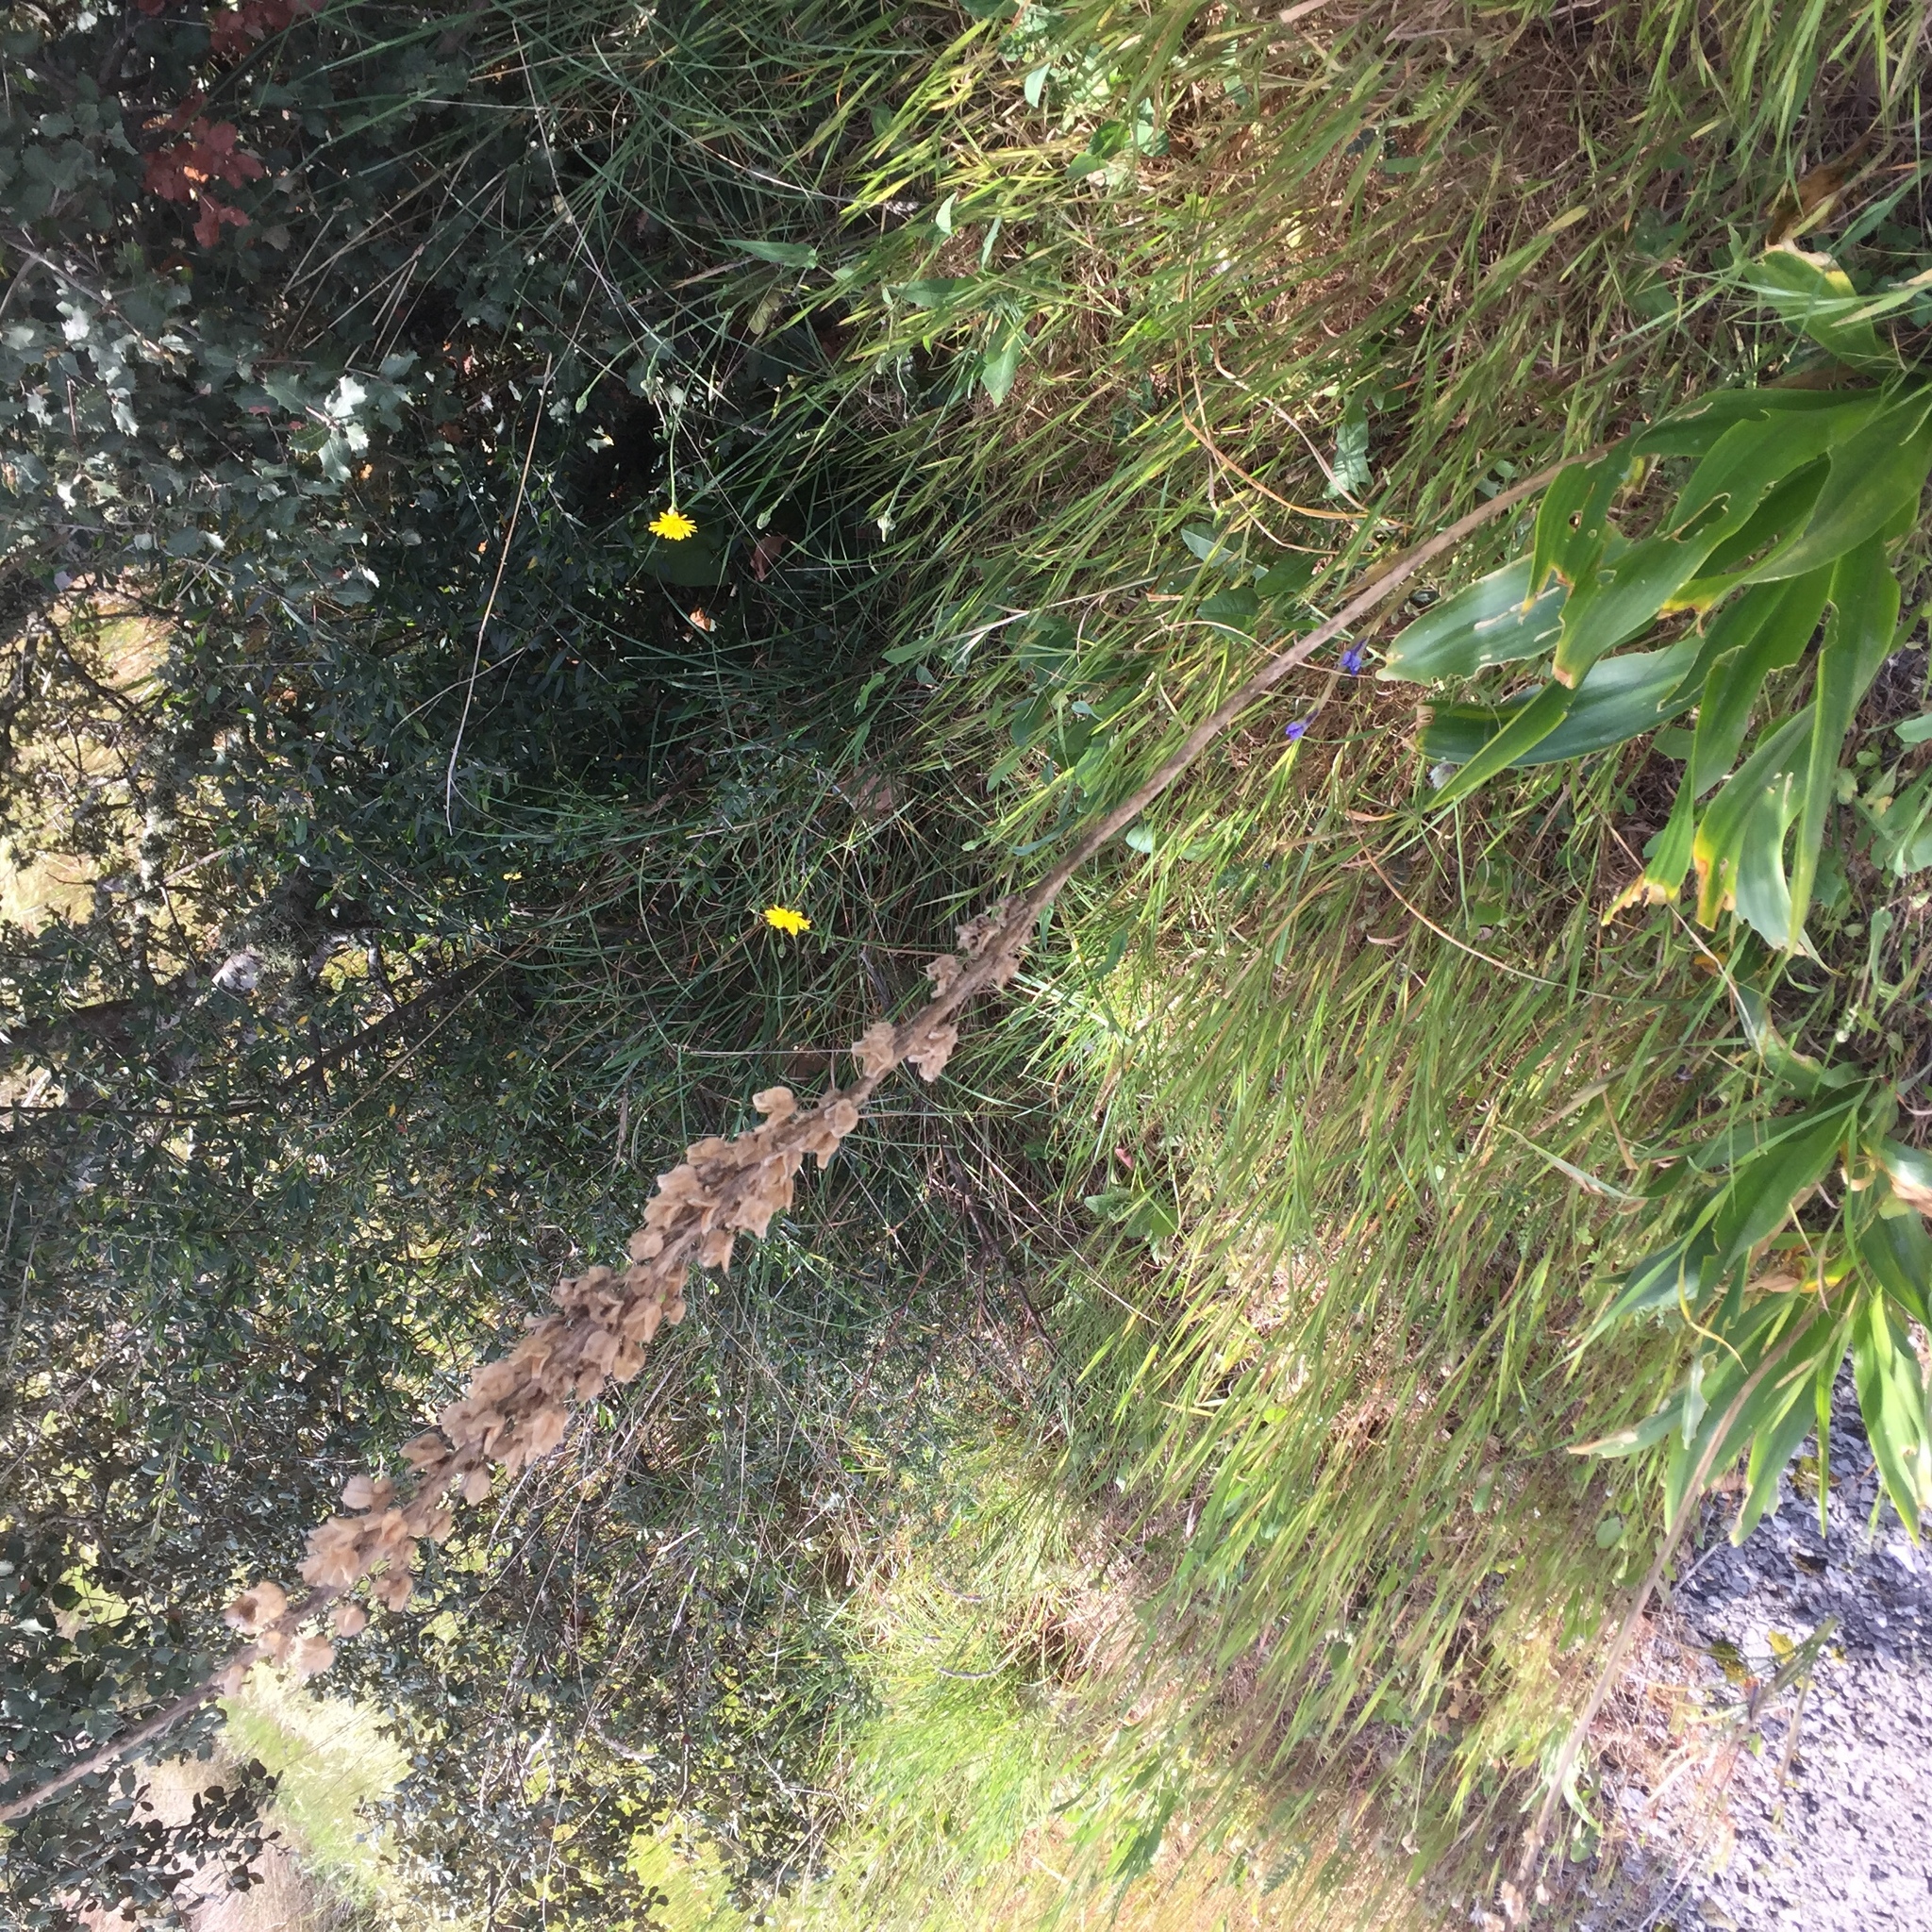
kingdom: Plantae
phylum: Tracheophyta
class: Liliopsida
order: Asparagales
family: Asparagaceae
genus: Drimia
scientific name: Drimia maritima
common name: Maritime squill
